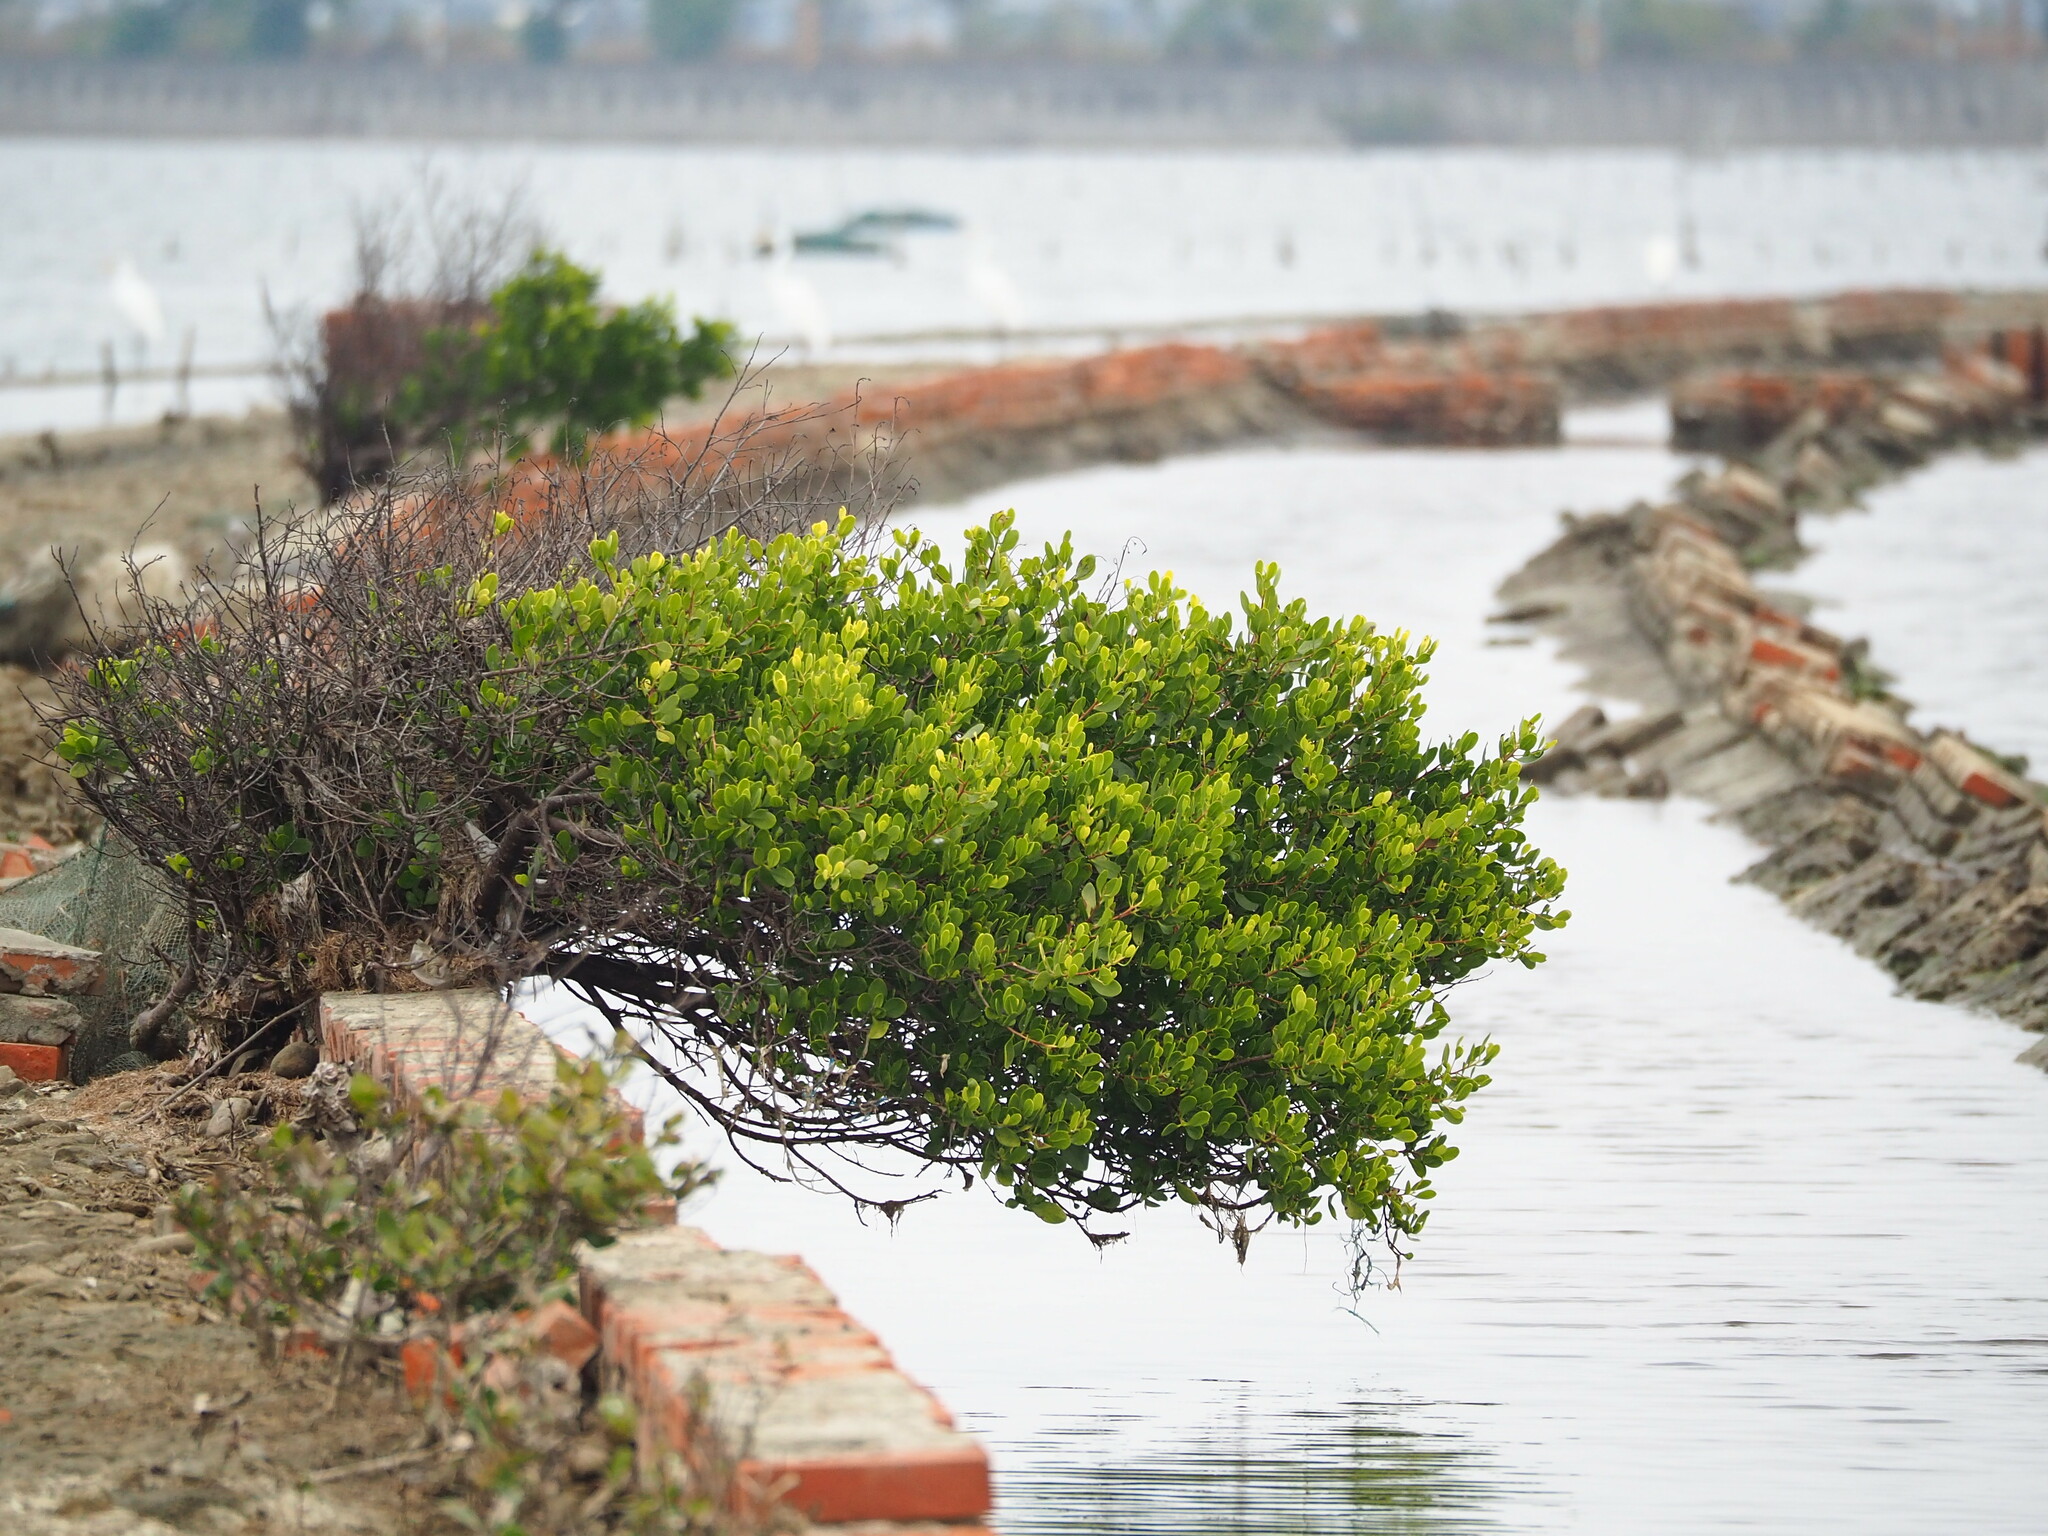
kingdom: Plantae
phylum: Tracheophyta
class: Magnoliopsida
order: Myrtales
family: Combretaceae
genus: Lumnitzera
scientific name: Lumnitzera racemosa
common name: White-flowered black mangrove
